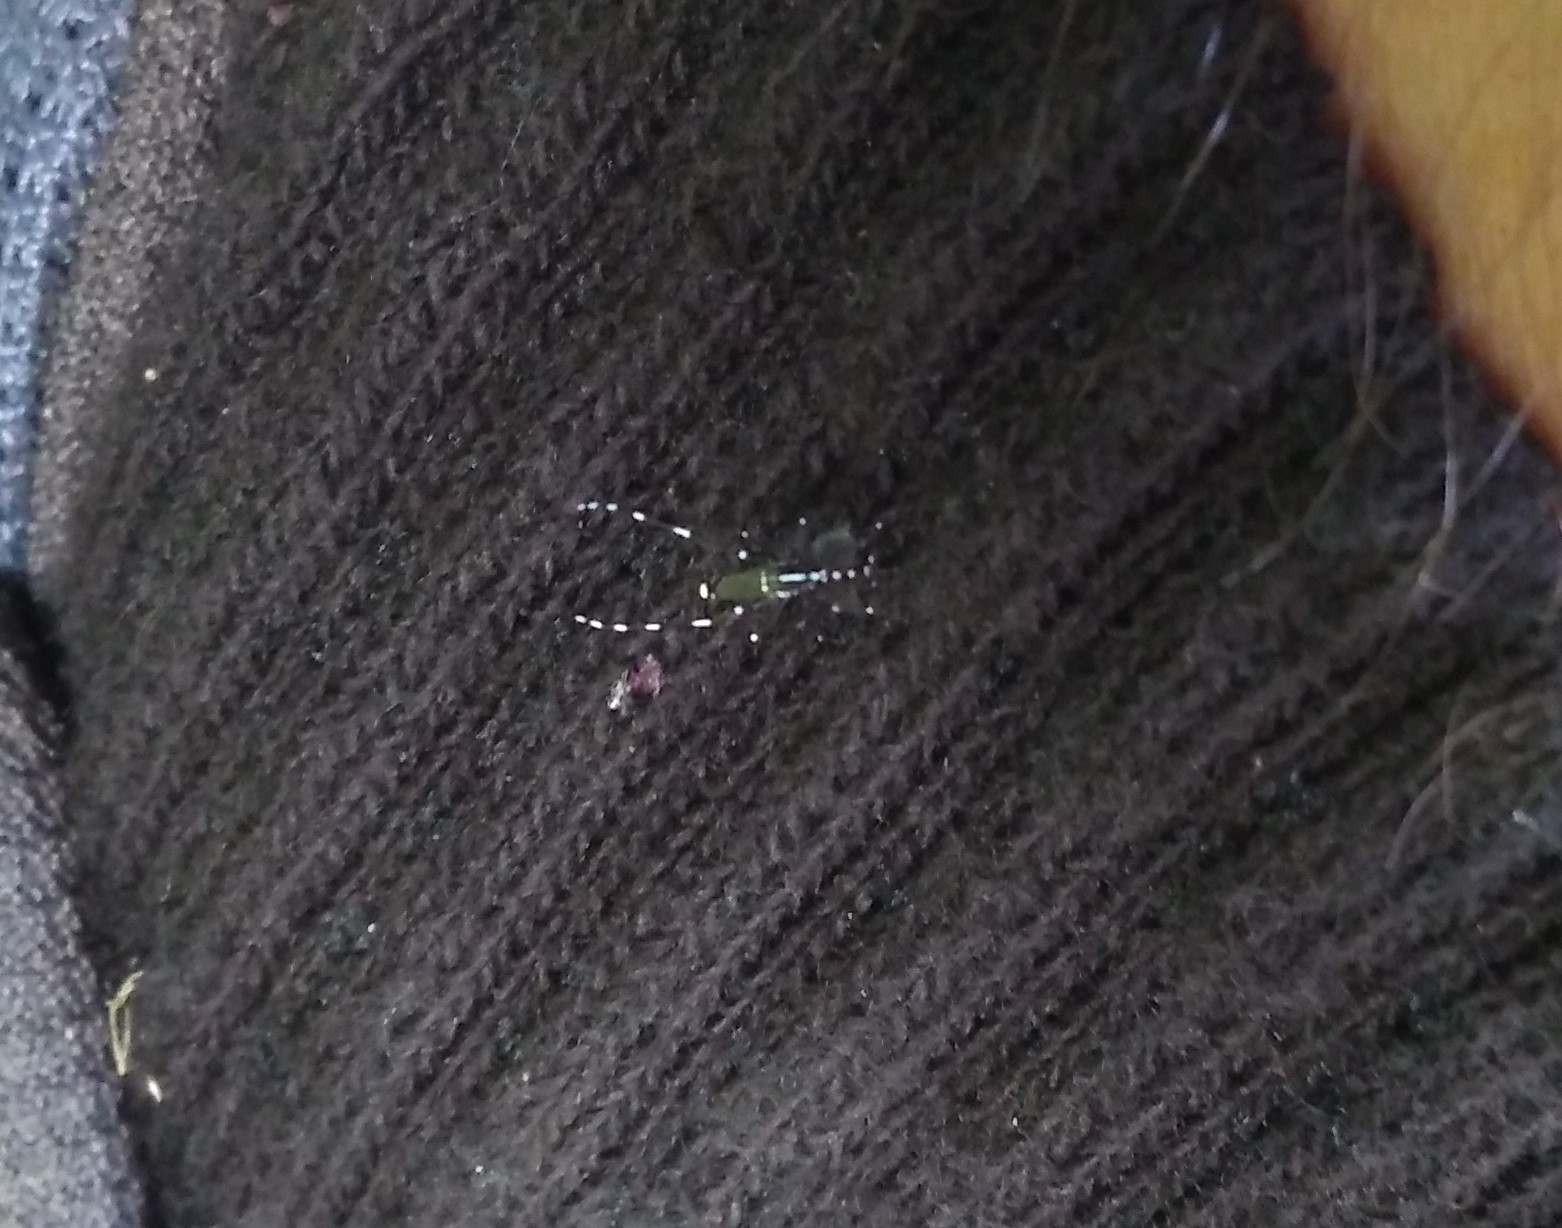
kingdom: Animalia
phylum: Arthropoda
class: Insecta
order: Diptera
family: Culicidae
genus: Aedes
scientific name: Aedes albopictus
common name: Tiger mosquito
